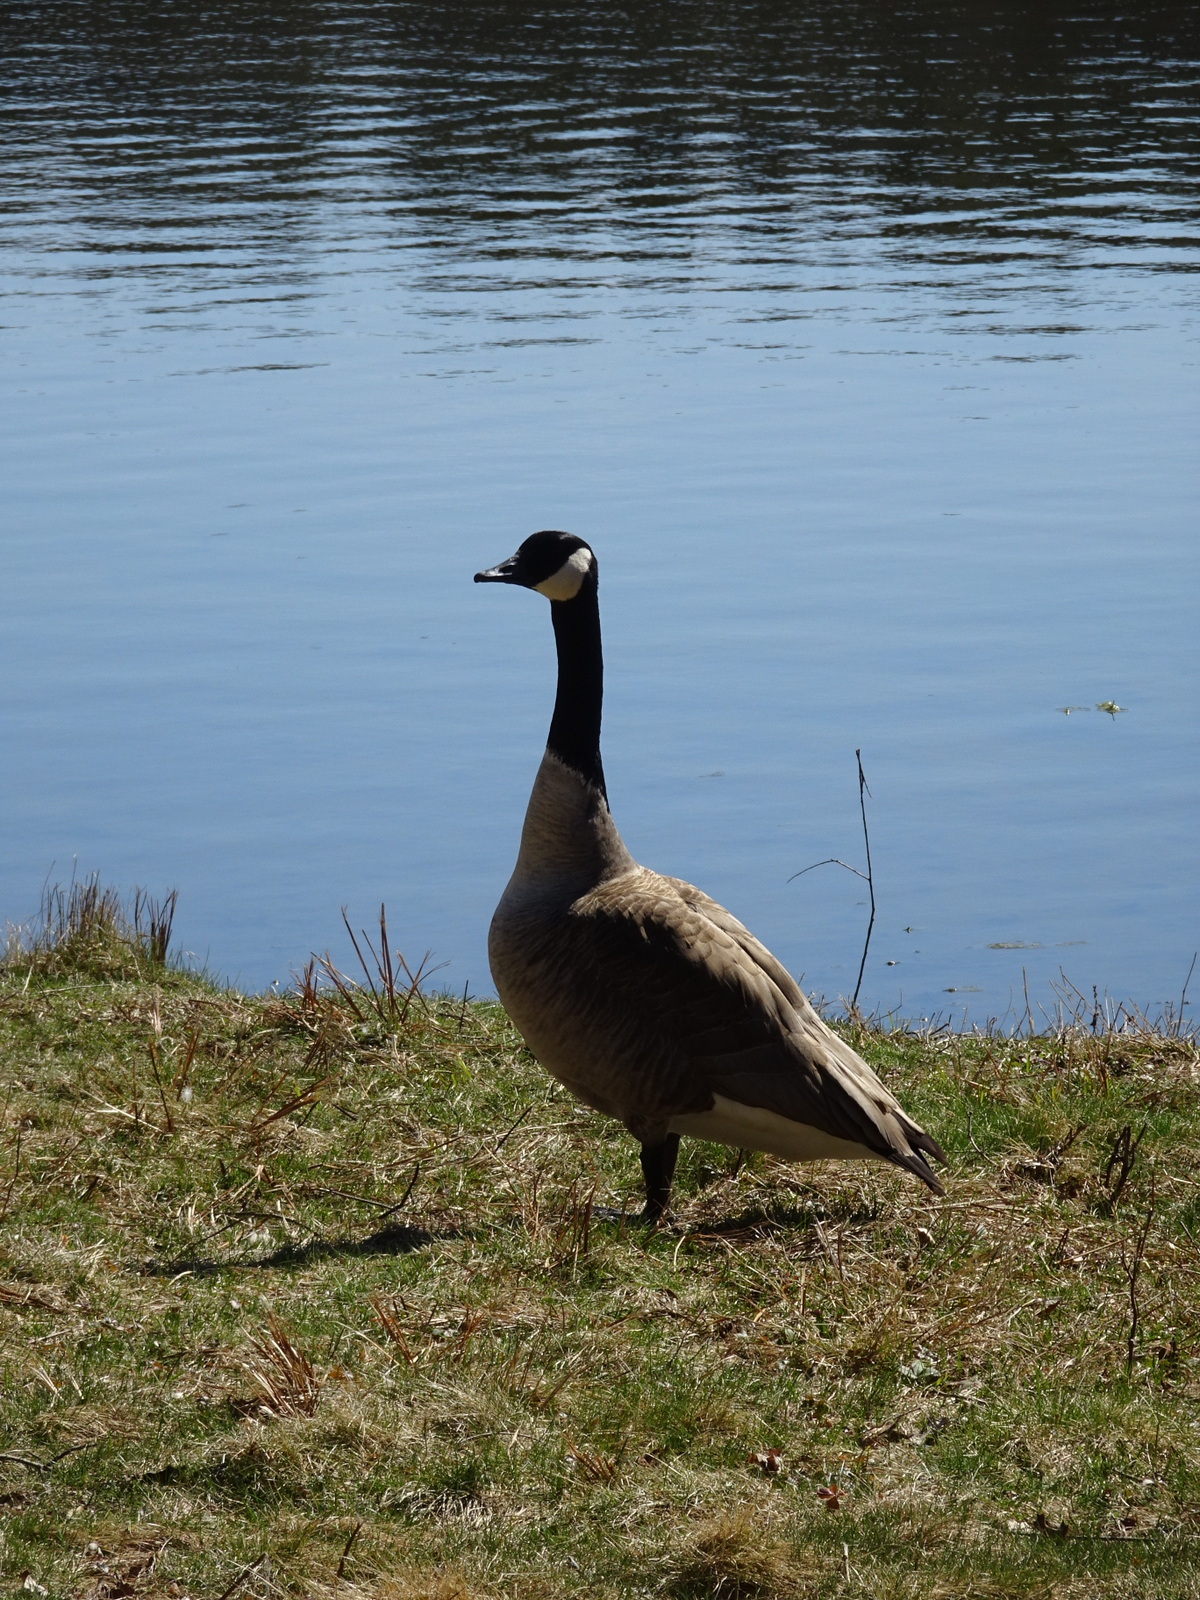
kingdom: Animalia
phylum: Chordata
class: Aves
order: Anseriformes
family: Anatidae
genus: Branta
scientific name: Branta canadensis
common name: Canada goose
